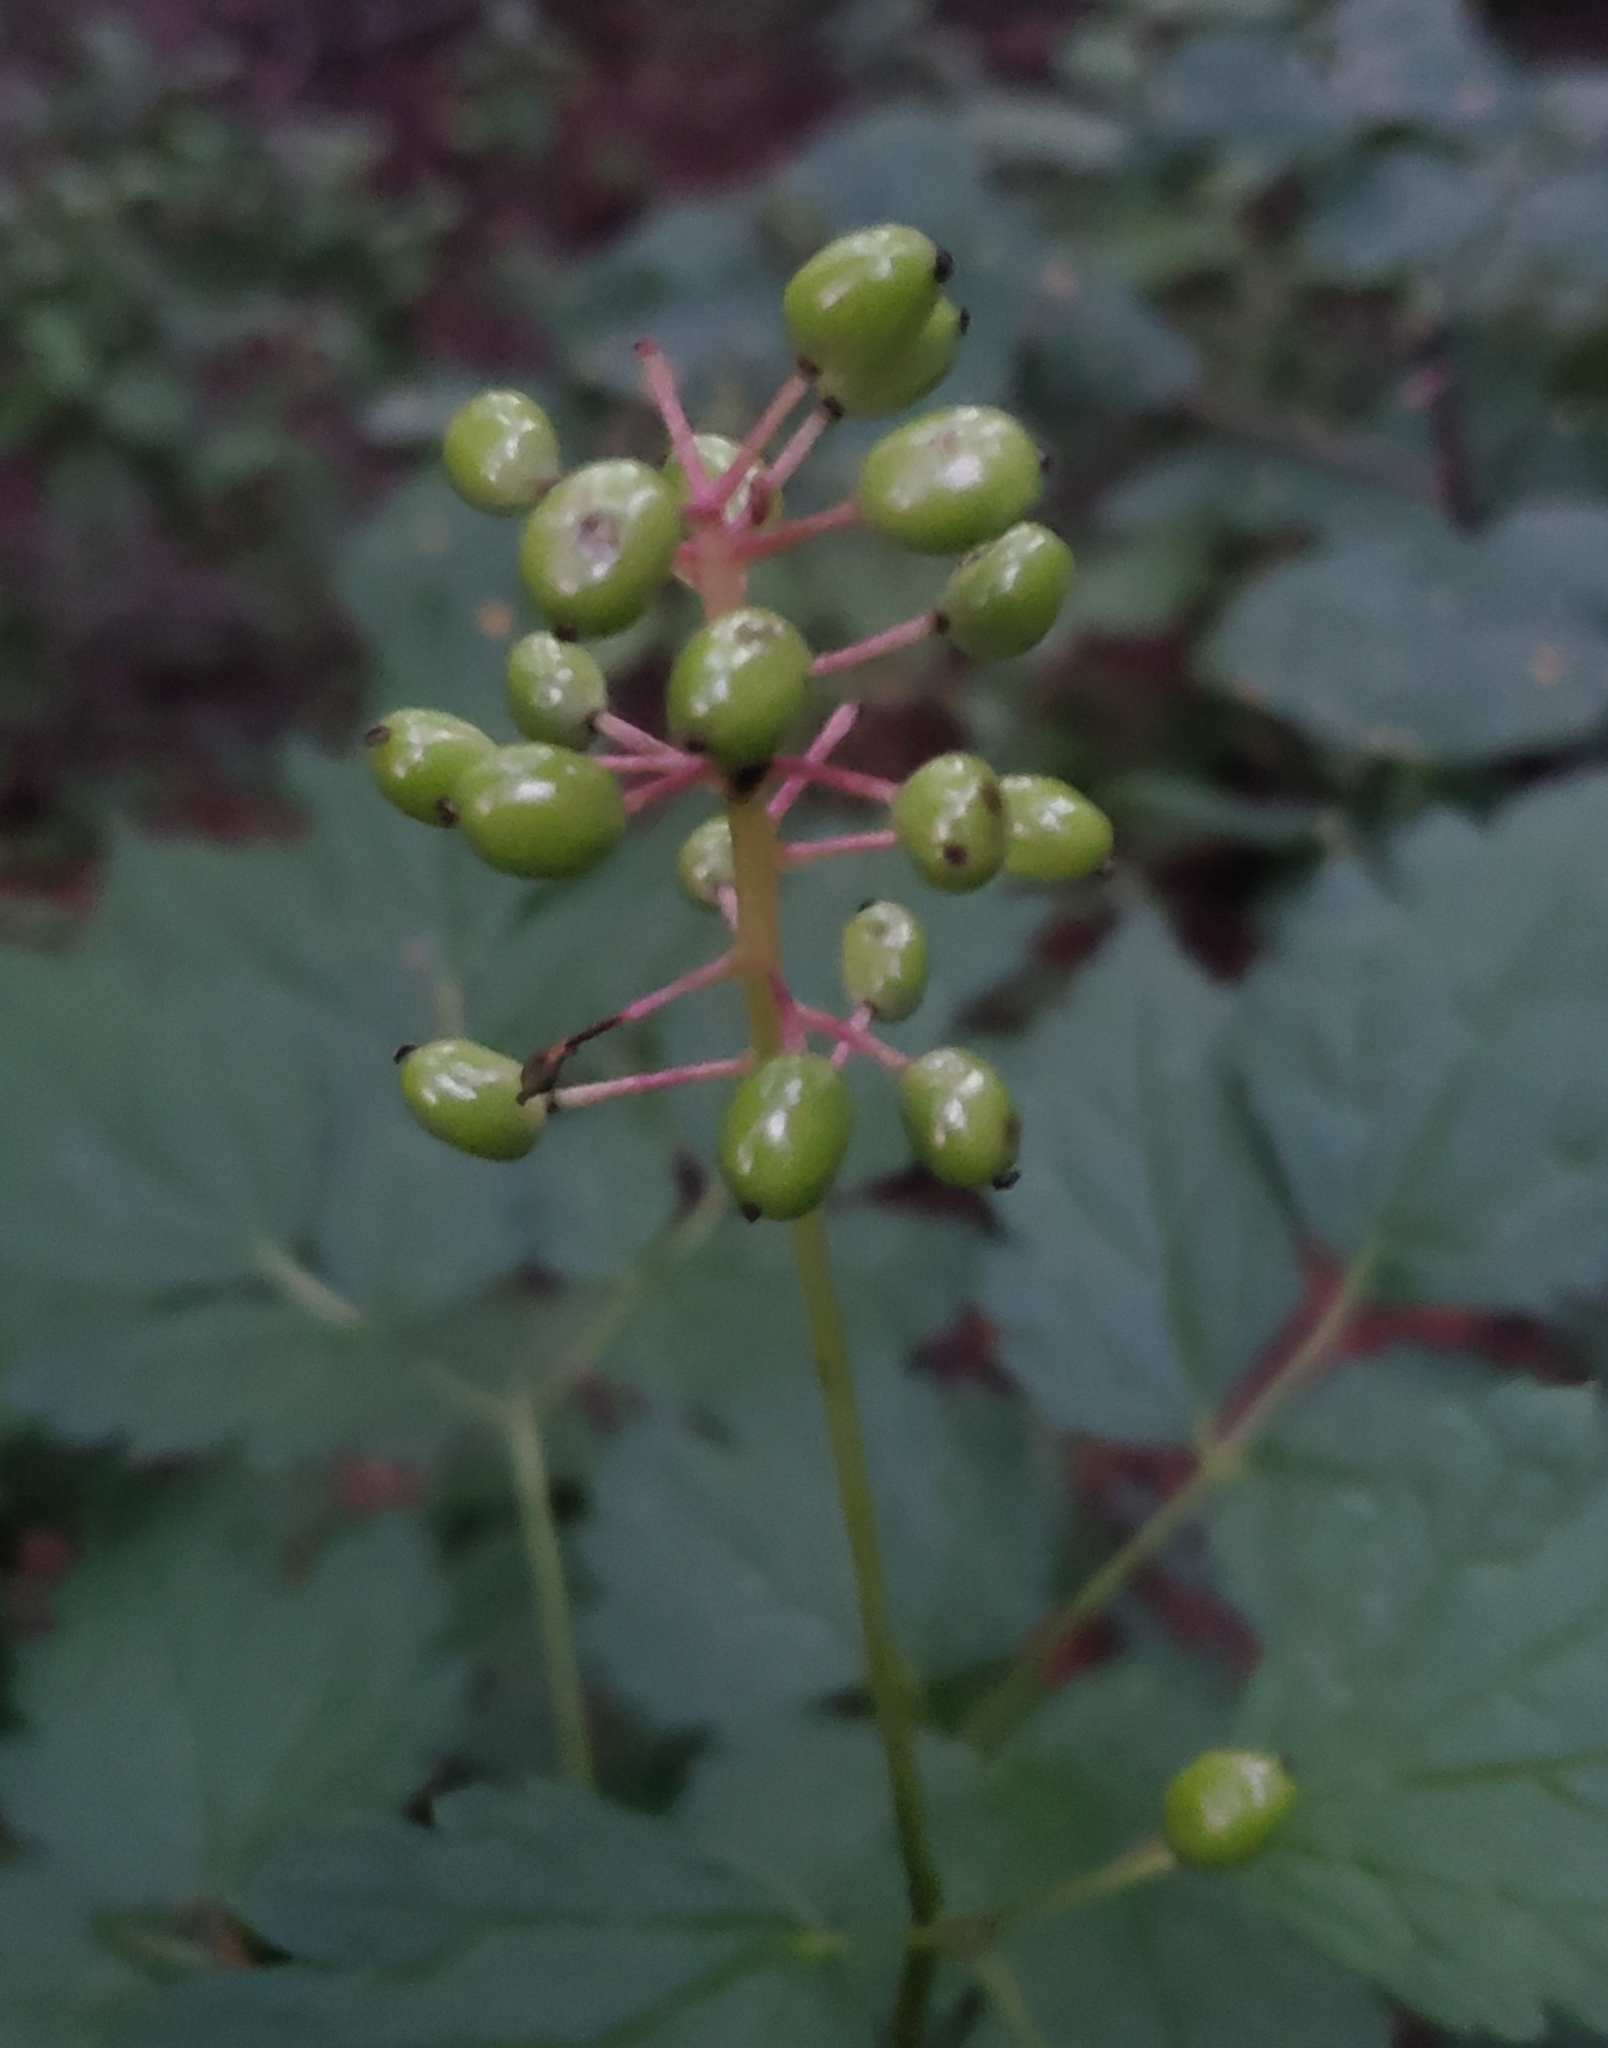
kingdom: Plantae
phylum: Tracheophyta
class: Magnoliopsida
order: Ranunculales
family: Ranunculaceae
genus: Actaea
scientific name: Actaea rubra
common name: Red baneberry
